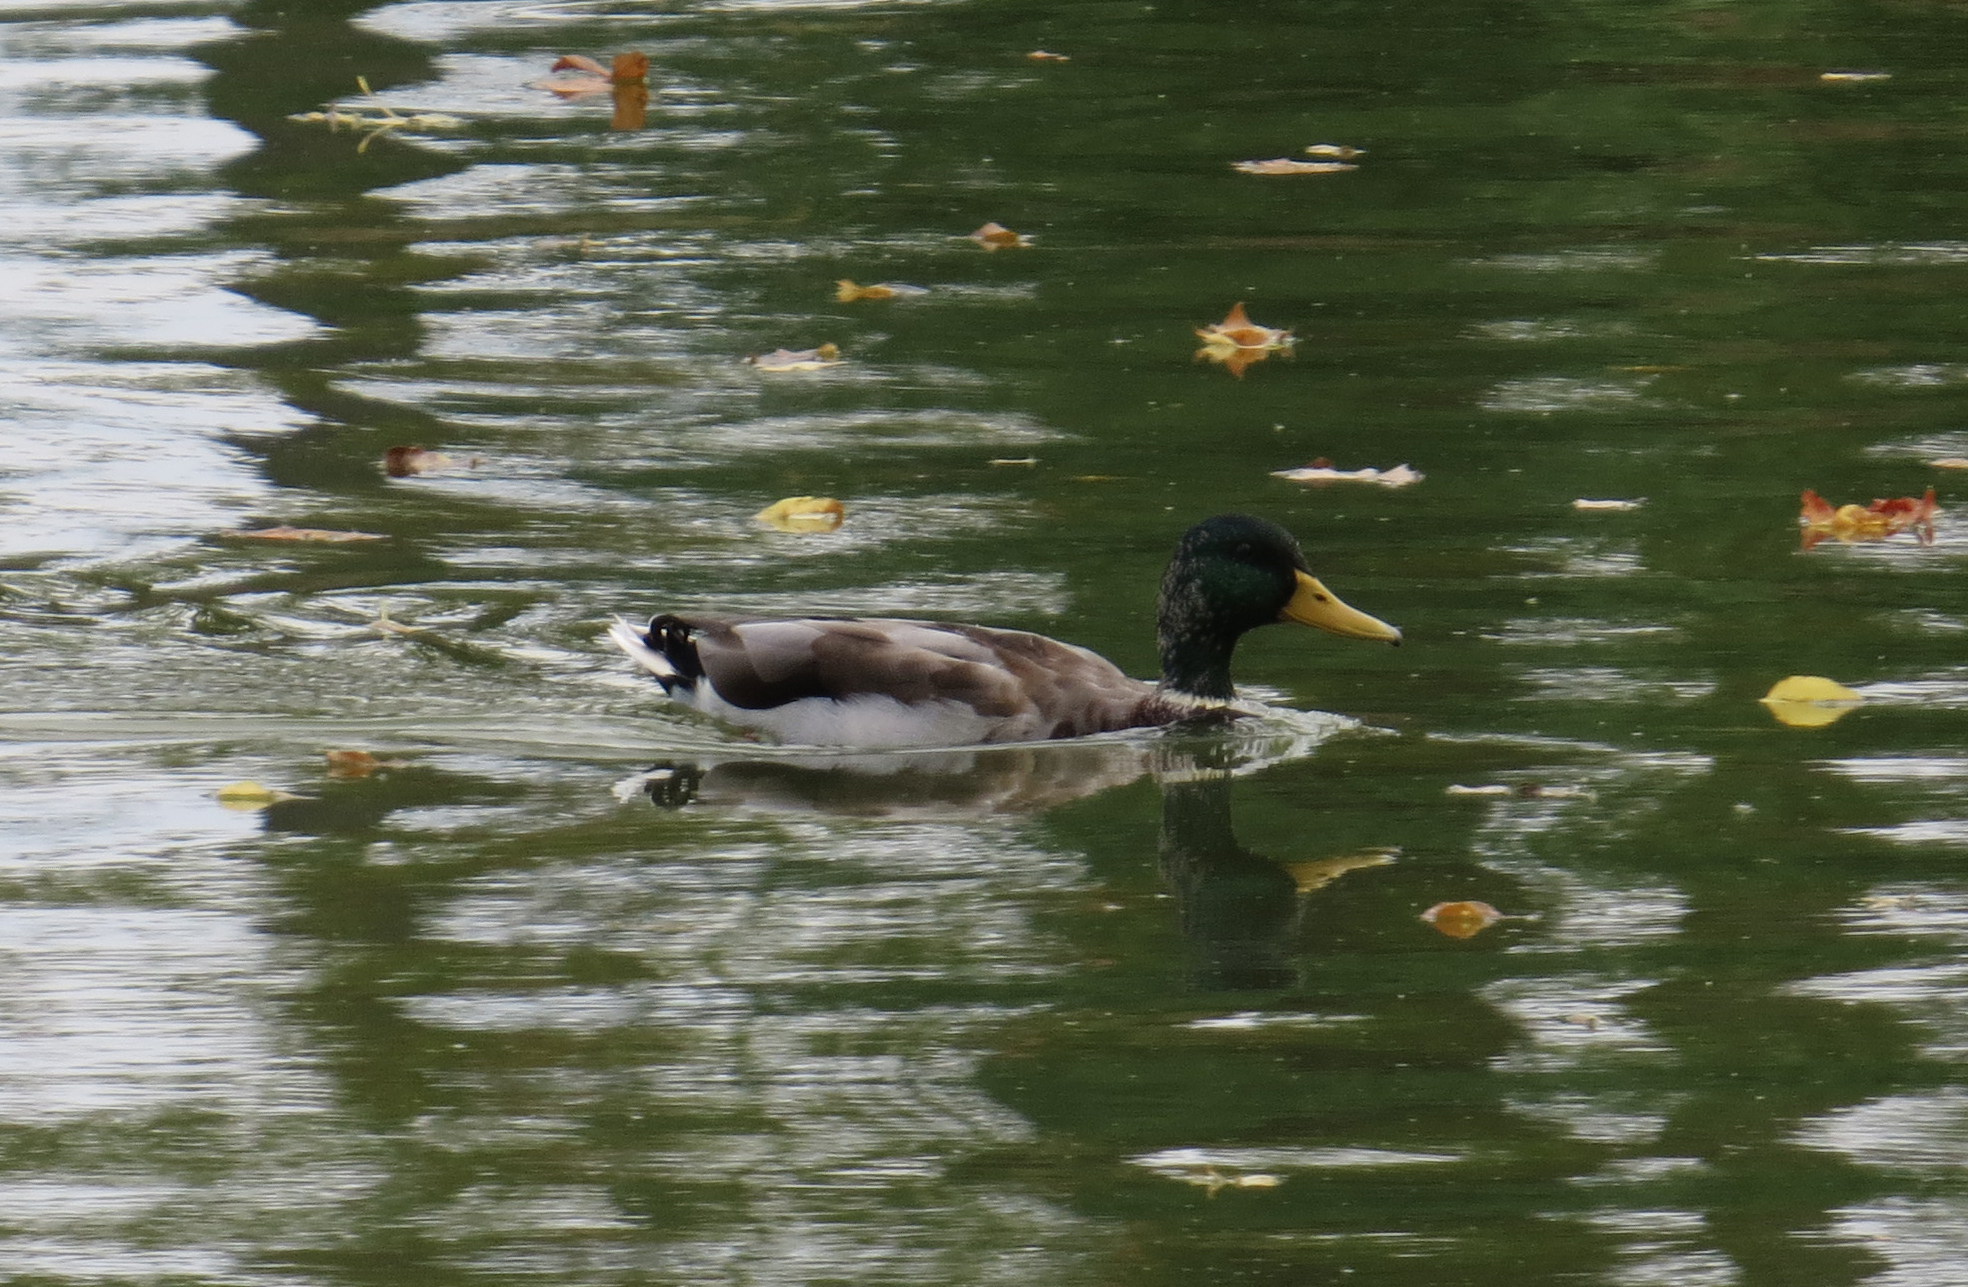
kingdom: Animalia
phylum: Chordata
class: Aves
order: Anseriformes
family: Anatidae
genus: Anas
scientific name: Anas platyrhynchos
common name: Mallard
